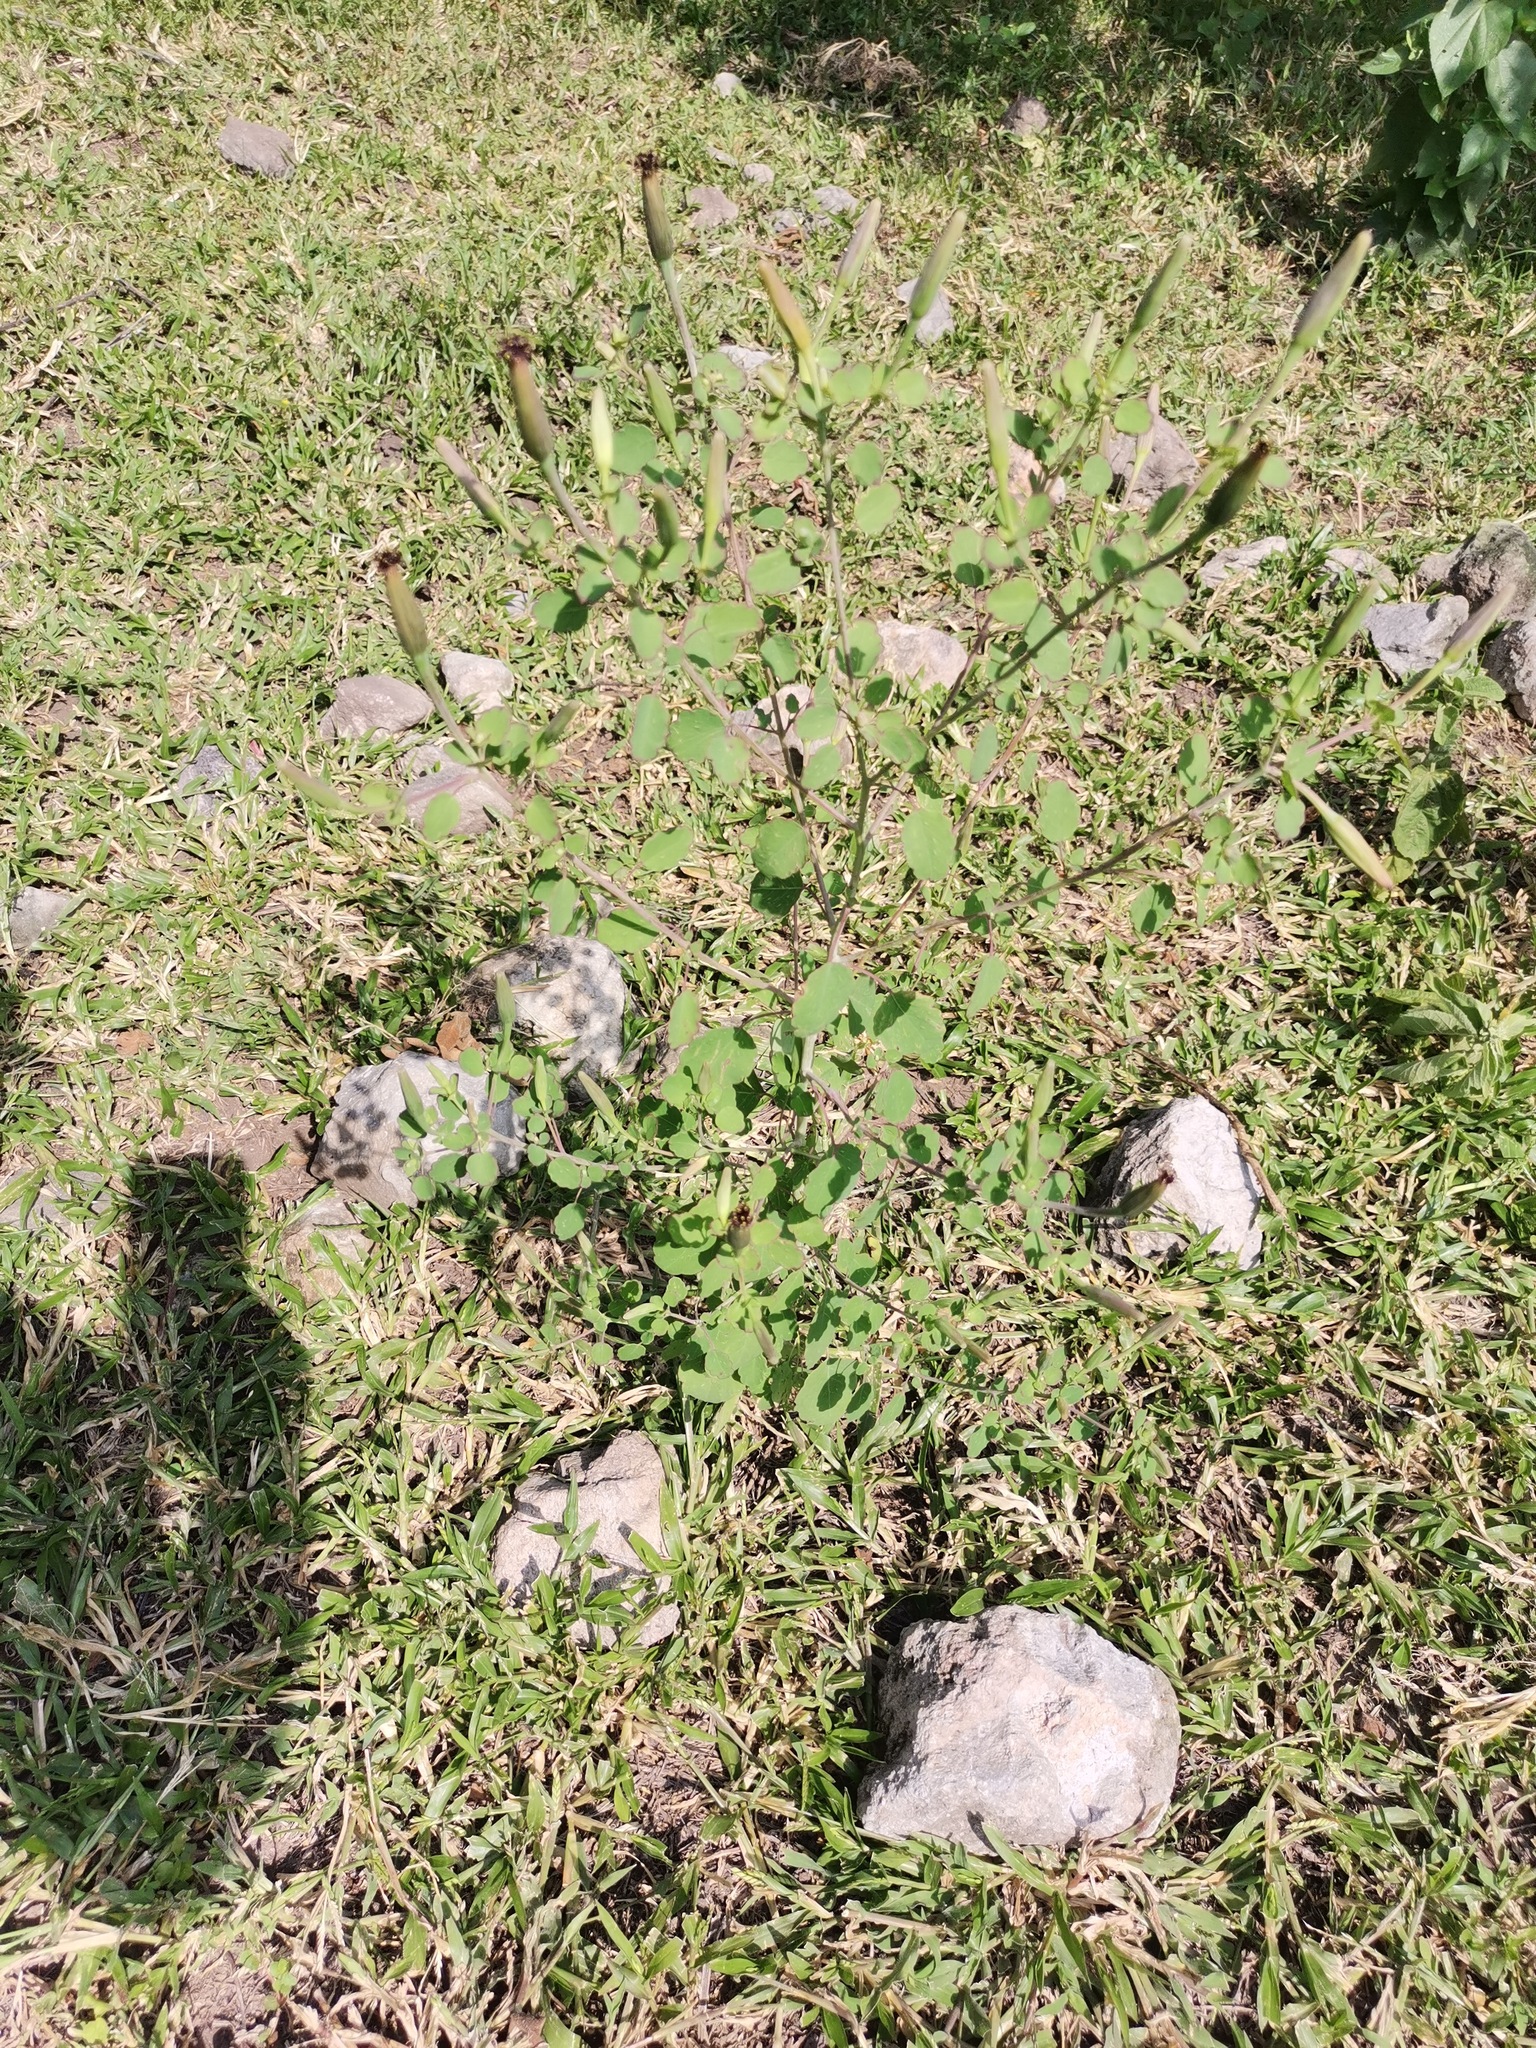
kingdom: Plantae
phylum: Tracheophyta
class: Magnoliopsida
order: Asterales
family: Asteraceae
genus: Porophyllum
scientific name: Porophyllum ruderale
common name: Yerba porosa
